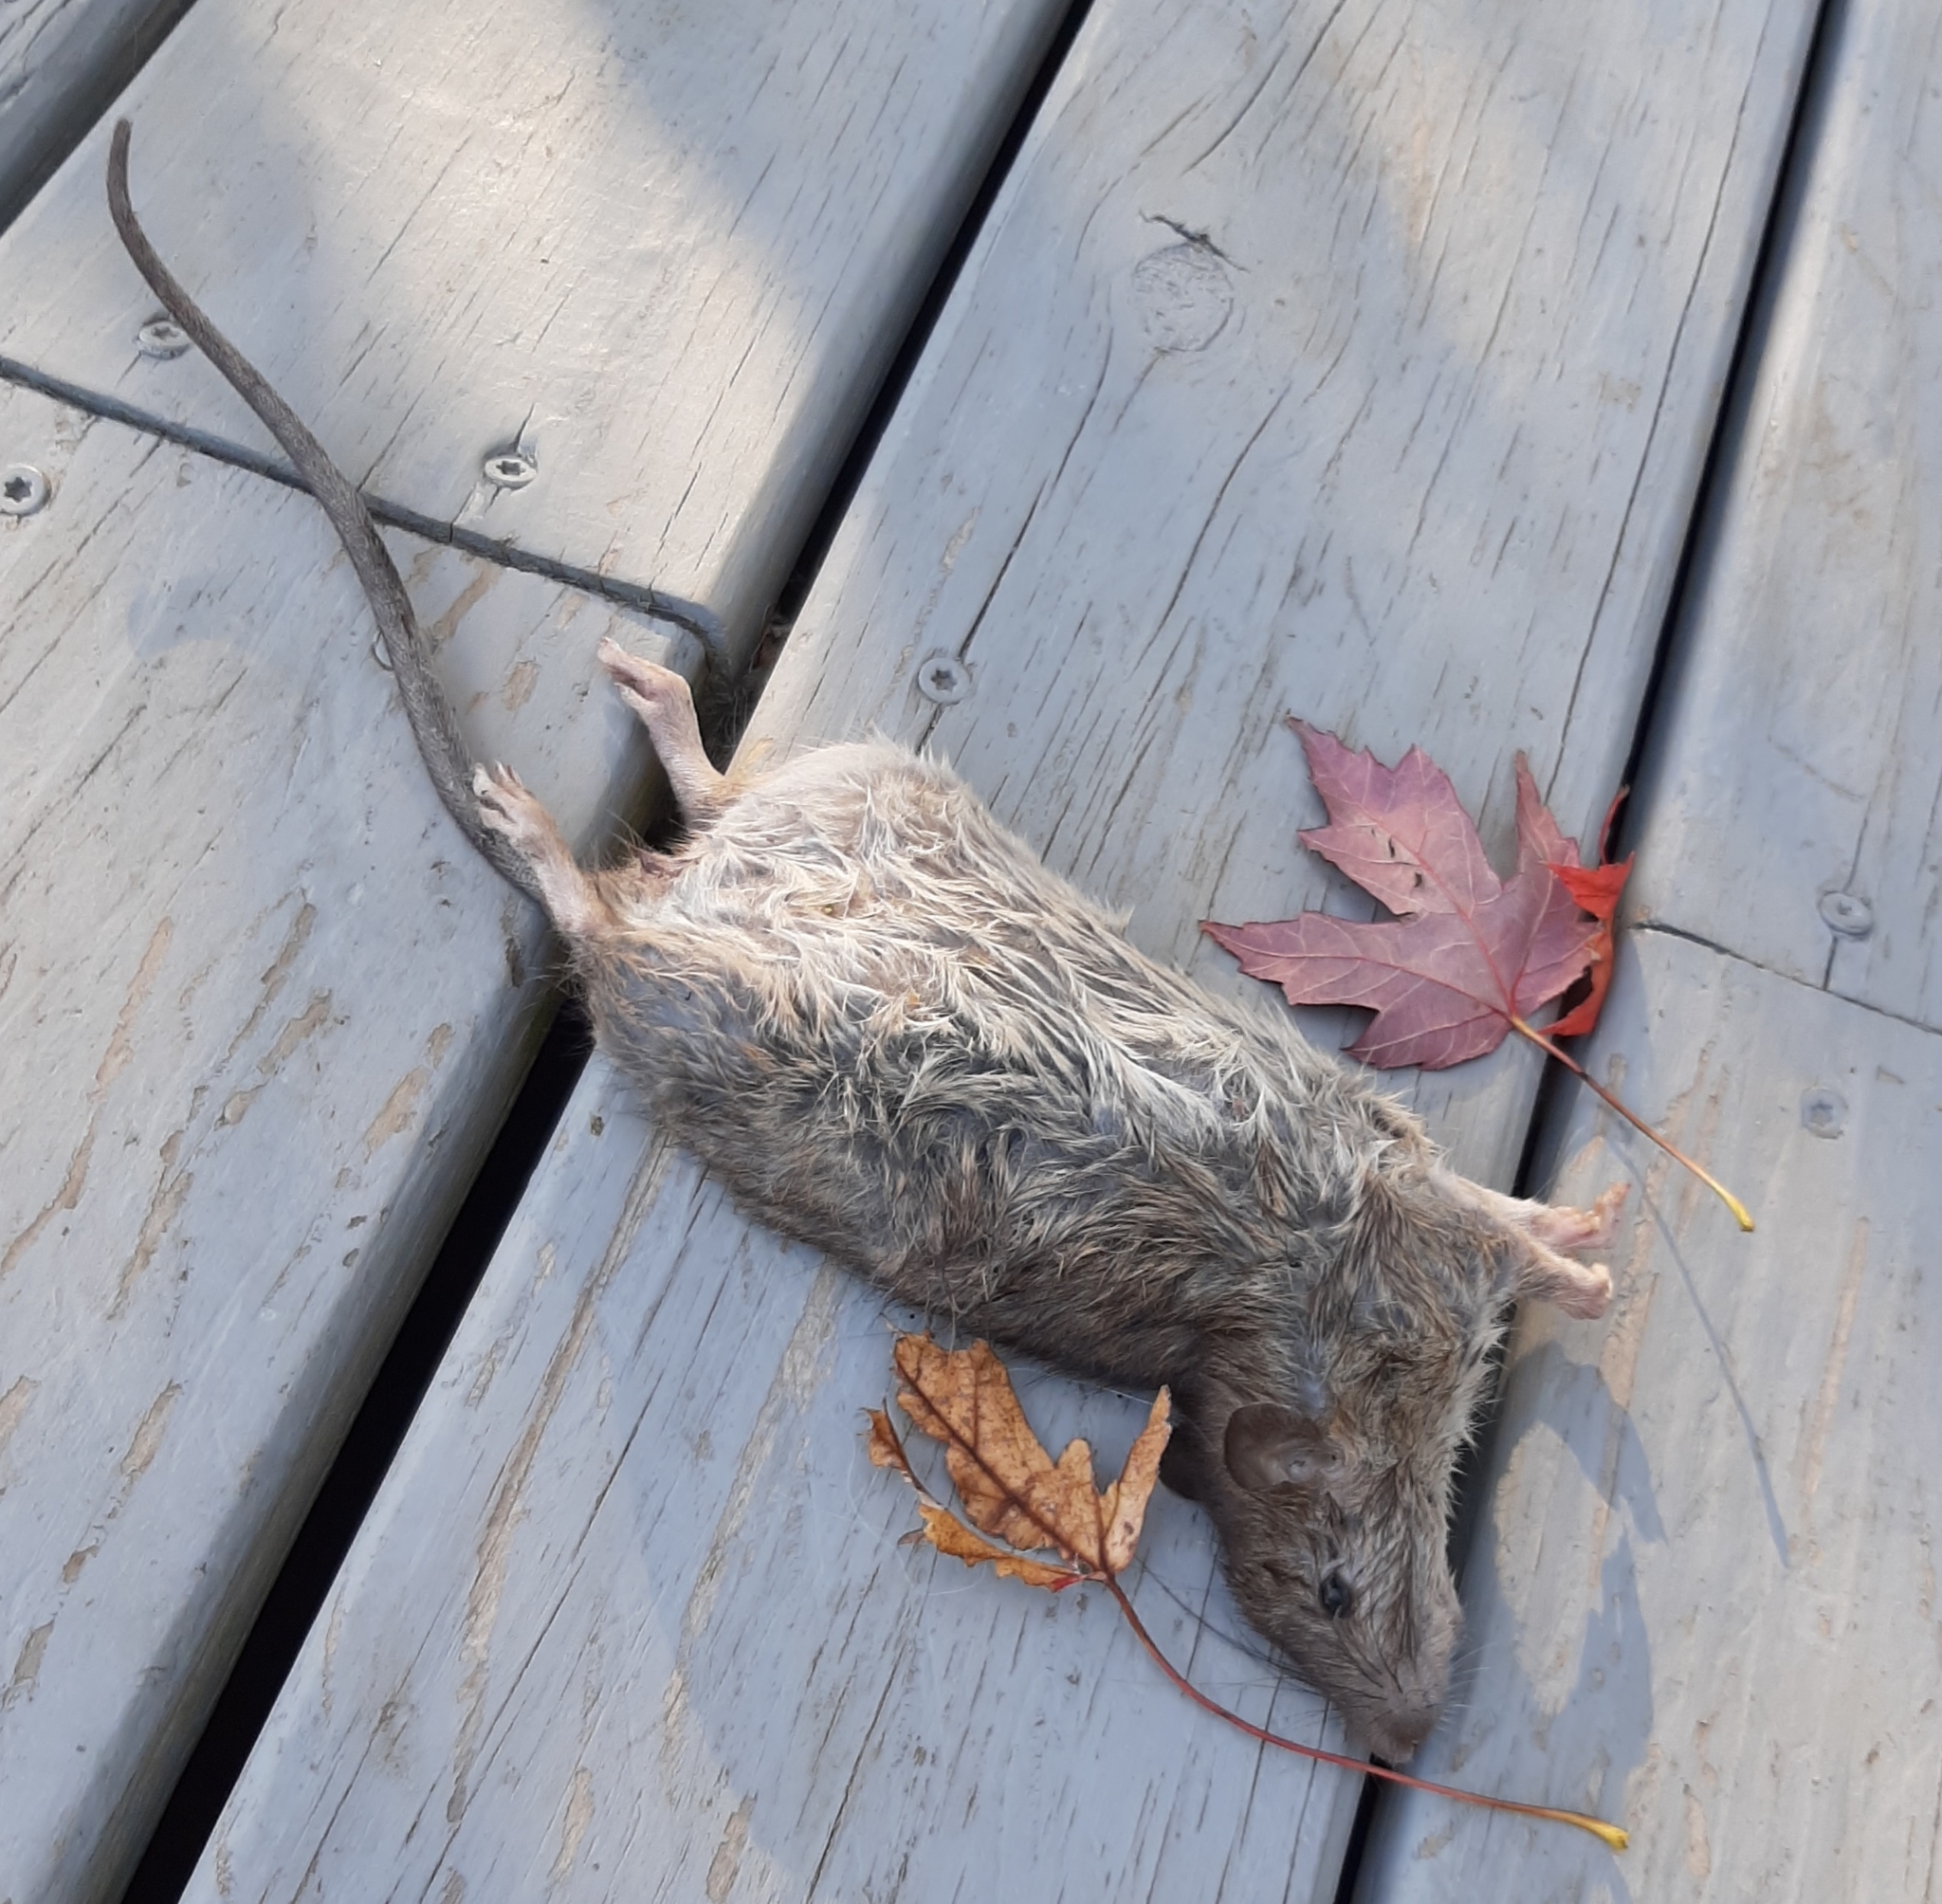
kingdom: Animalia
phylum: Chordata
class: Mammalia
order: Rodentia
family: Muridae
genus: Rattus
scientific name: Rattus norvegicus
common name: Brown rat
